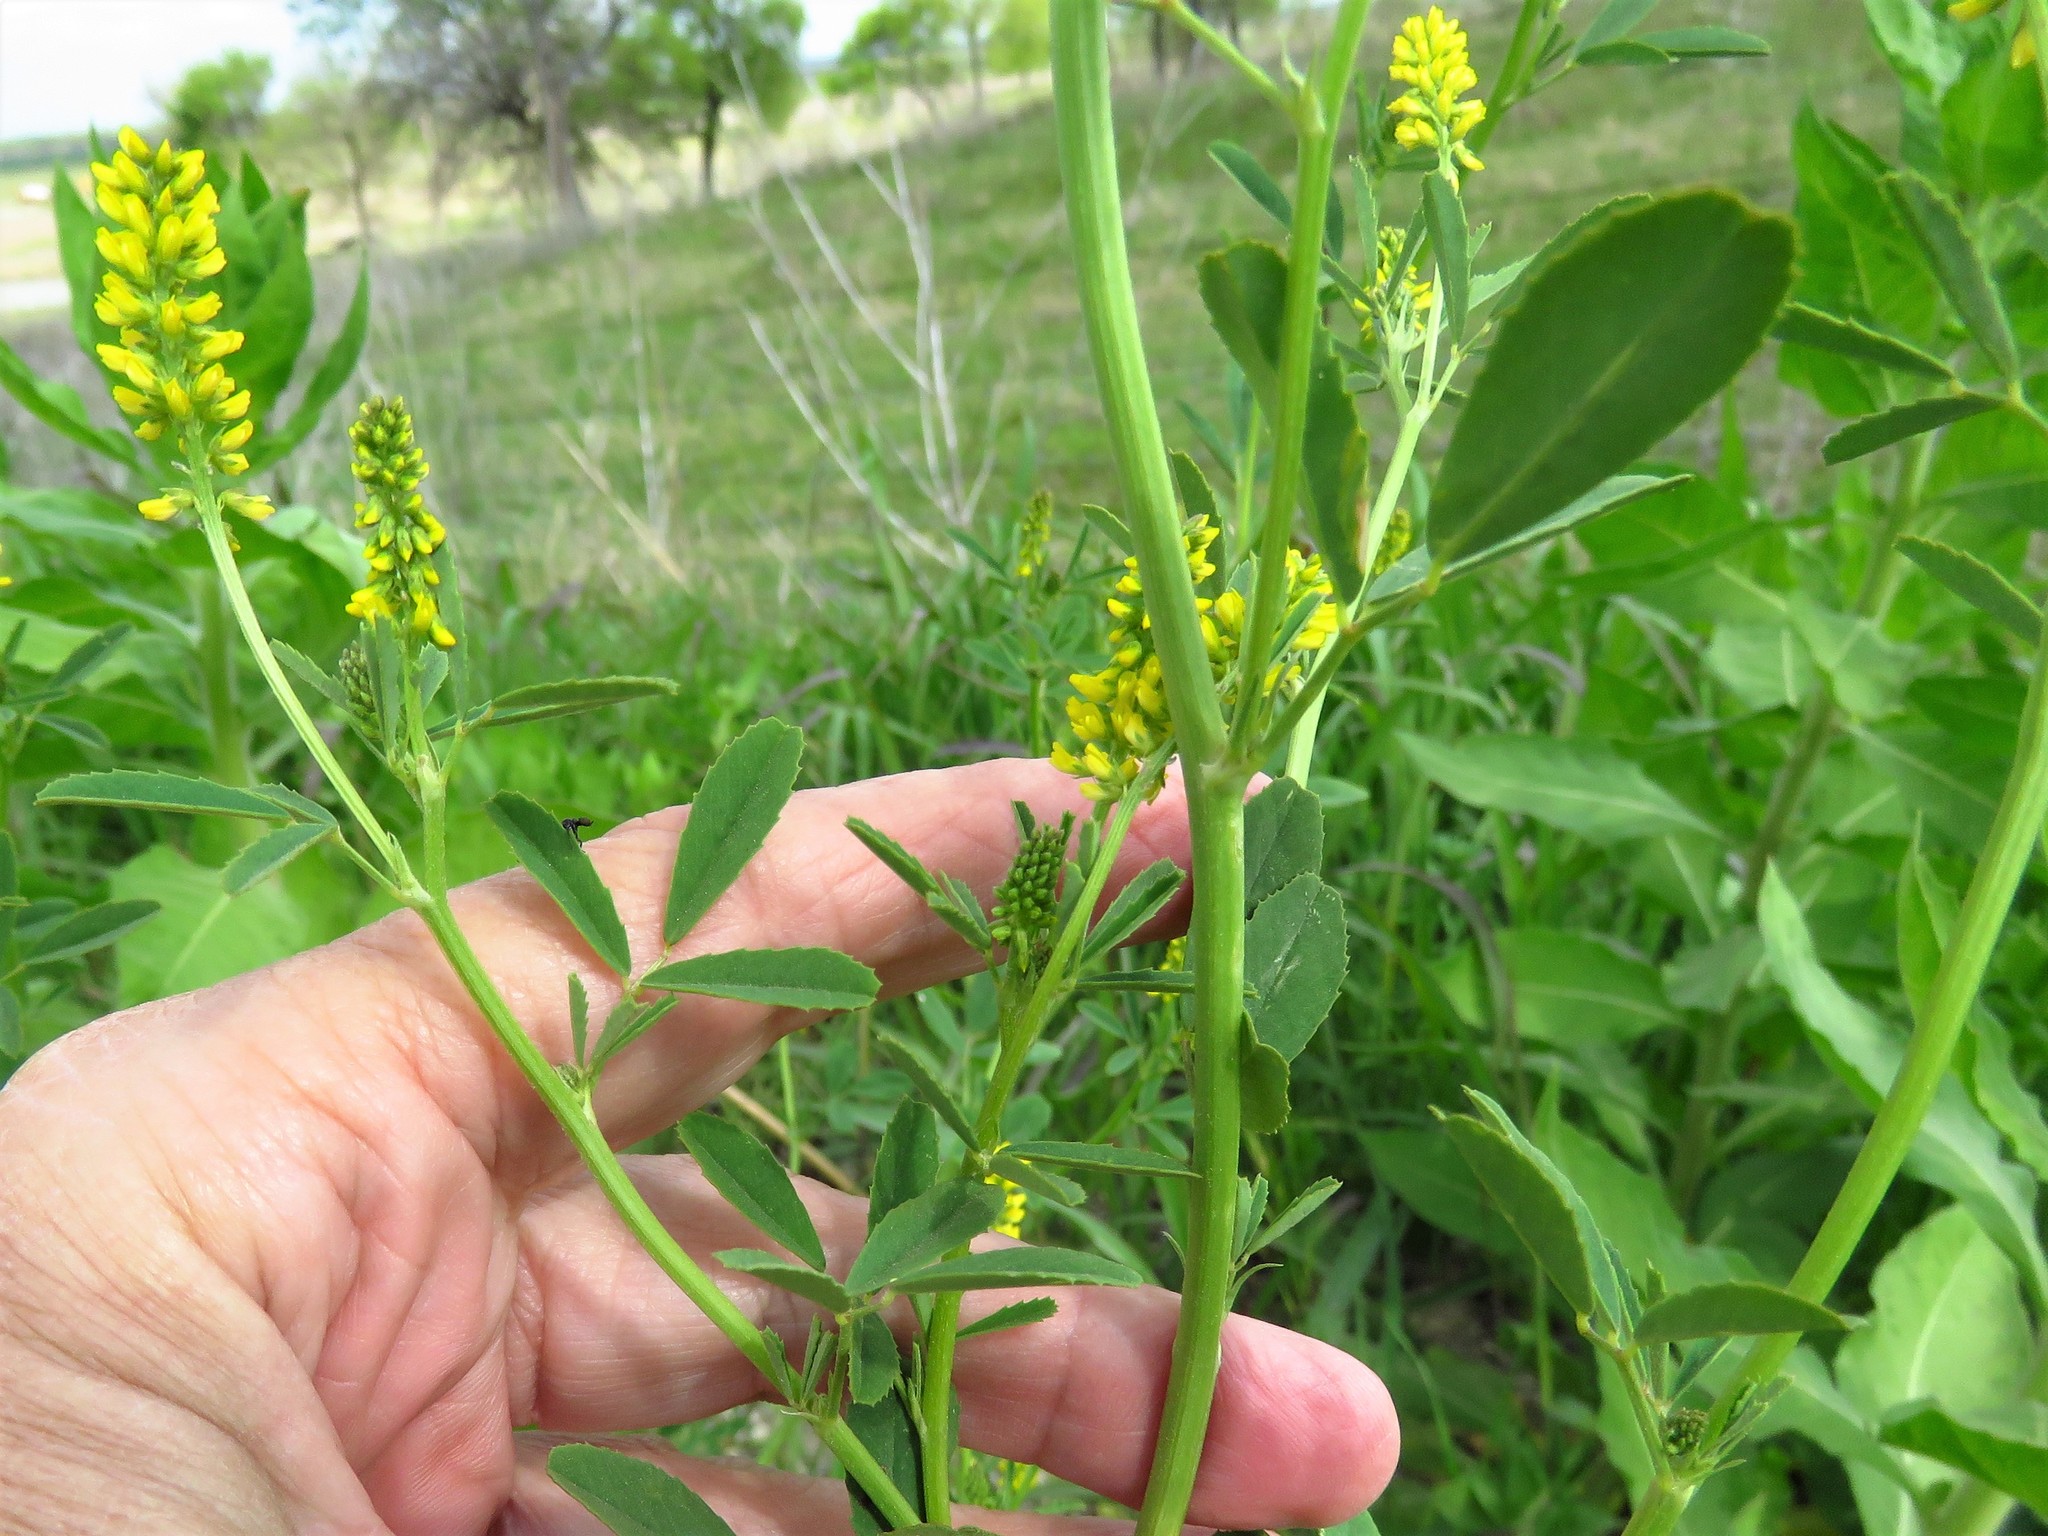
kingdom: Plantae
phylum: Tracheophyta
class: Magnoliopsida
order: Fabales
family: Fabaceae
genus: Melilotus
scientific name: Melilotus indicus
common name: Small melilot
